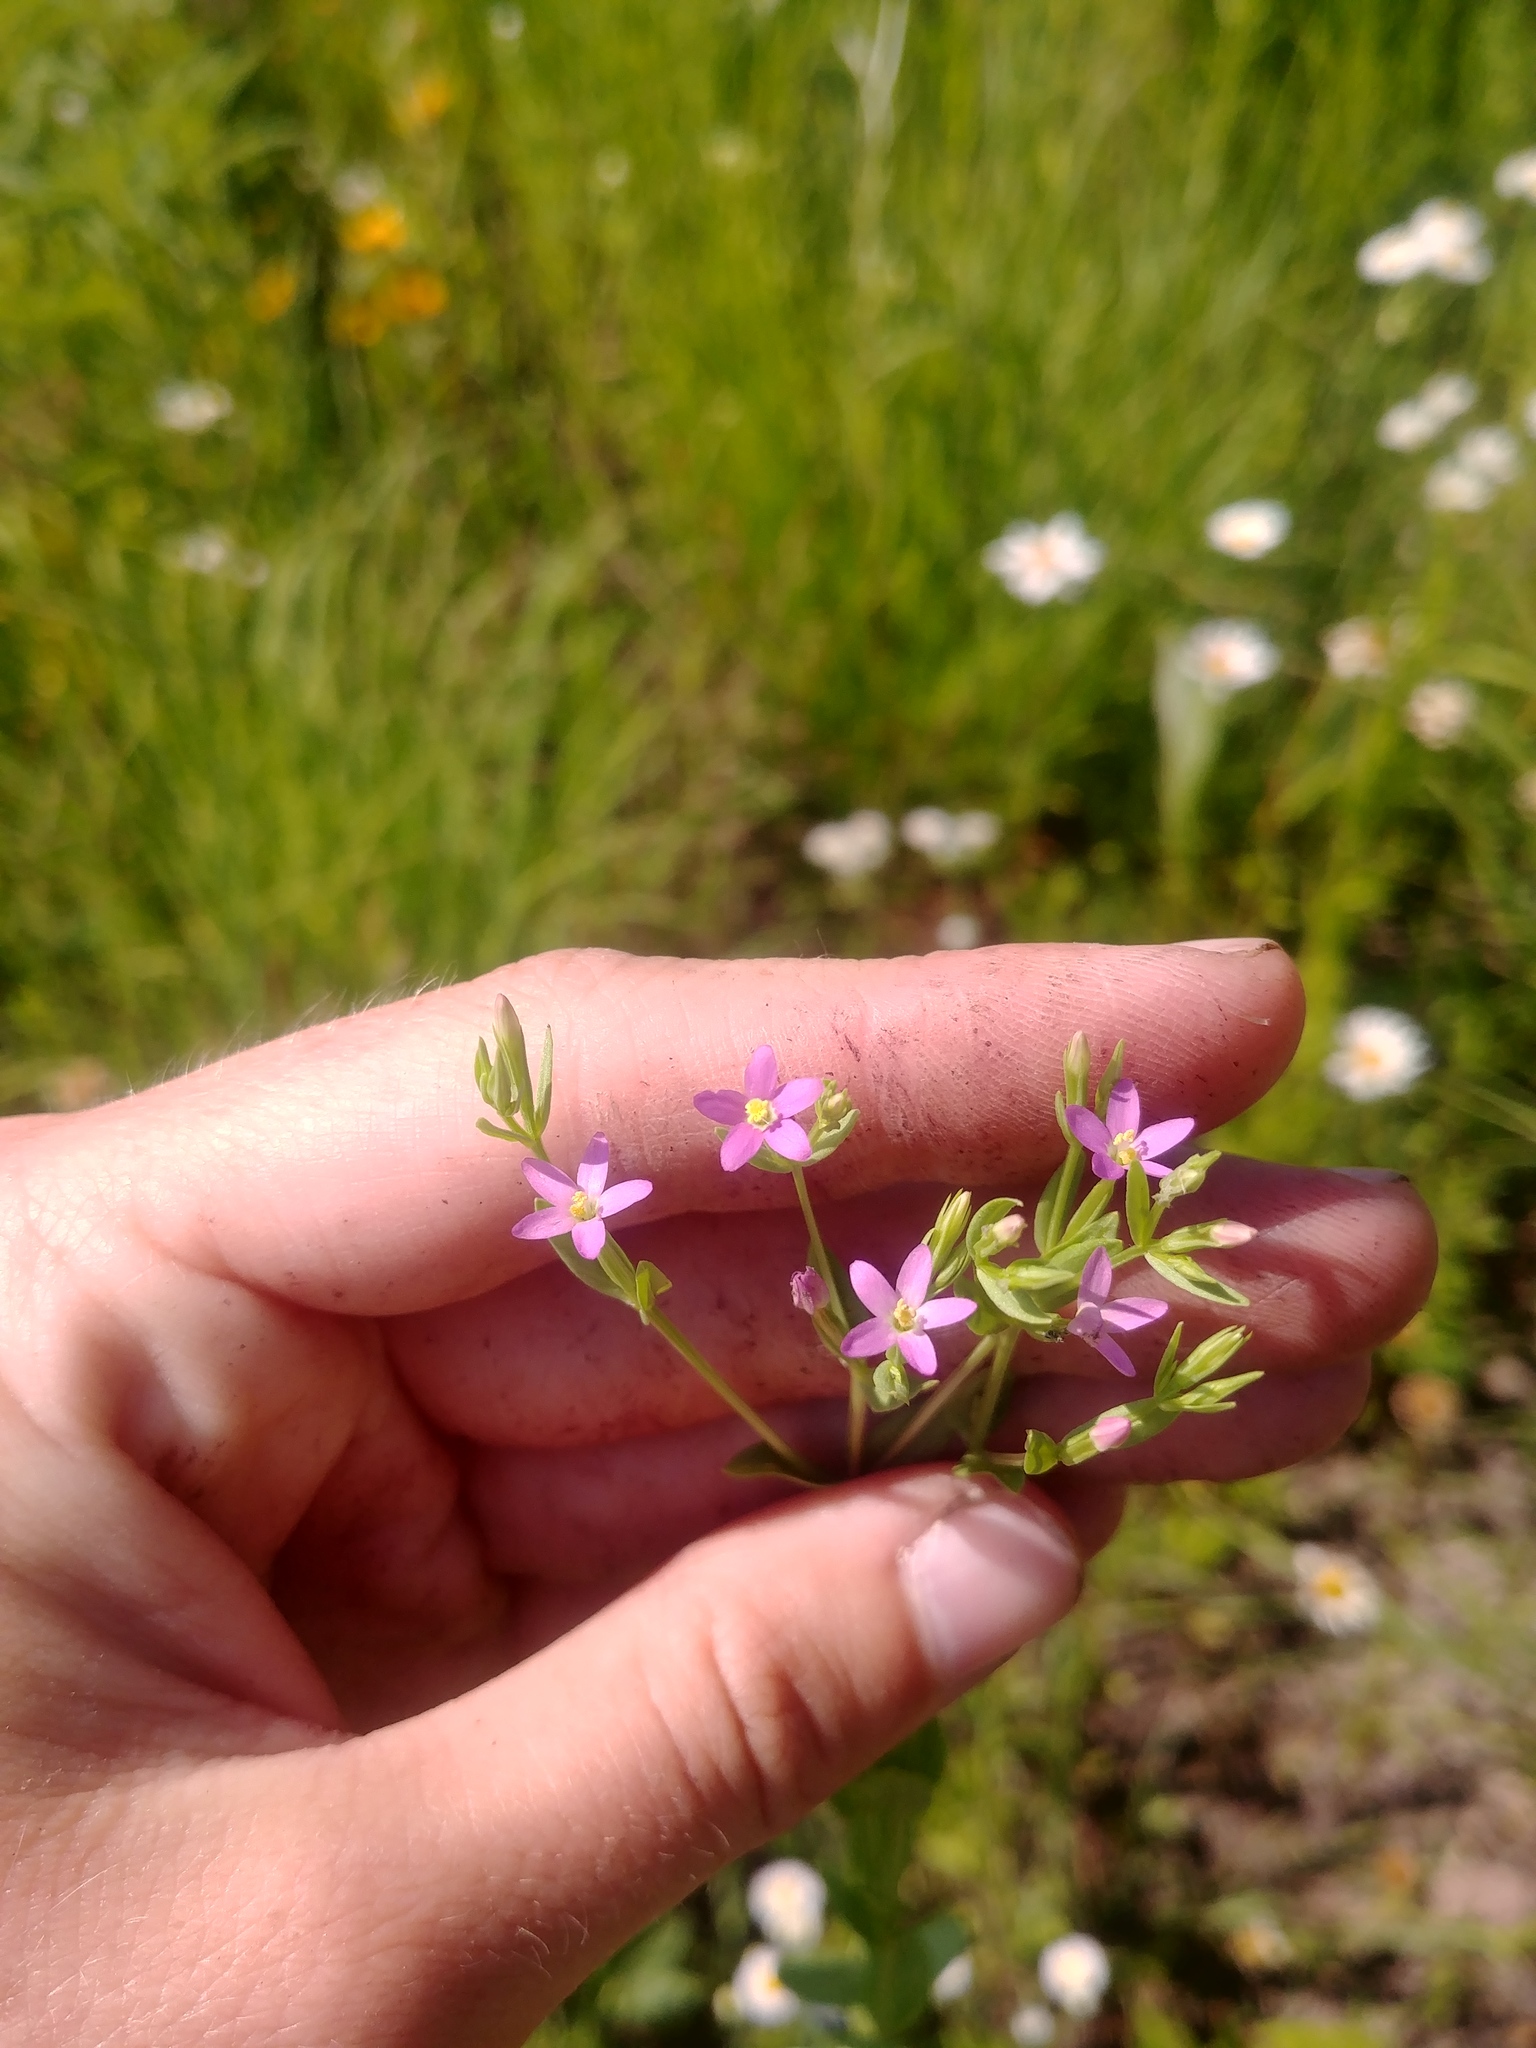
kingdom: Plantae
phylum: Tracheophyta
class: Magnoliopsida
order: Gentianales
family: Gentianaceae
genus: Centaurium
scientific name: Centaurium pulchellum
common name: Lesser centaury
